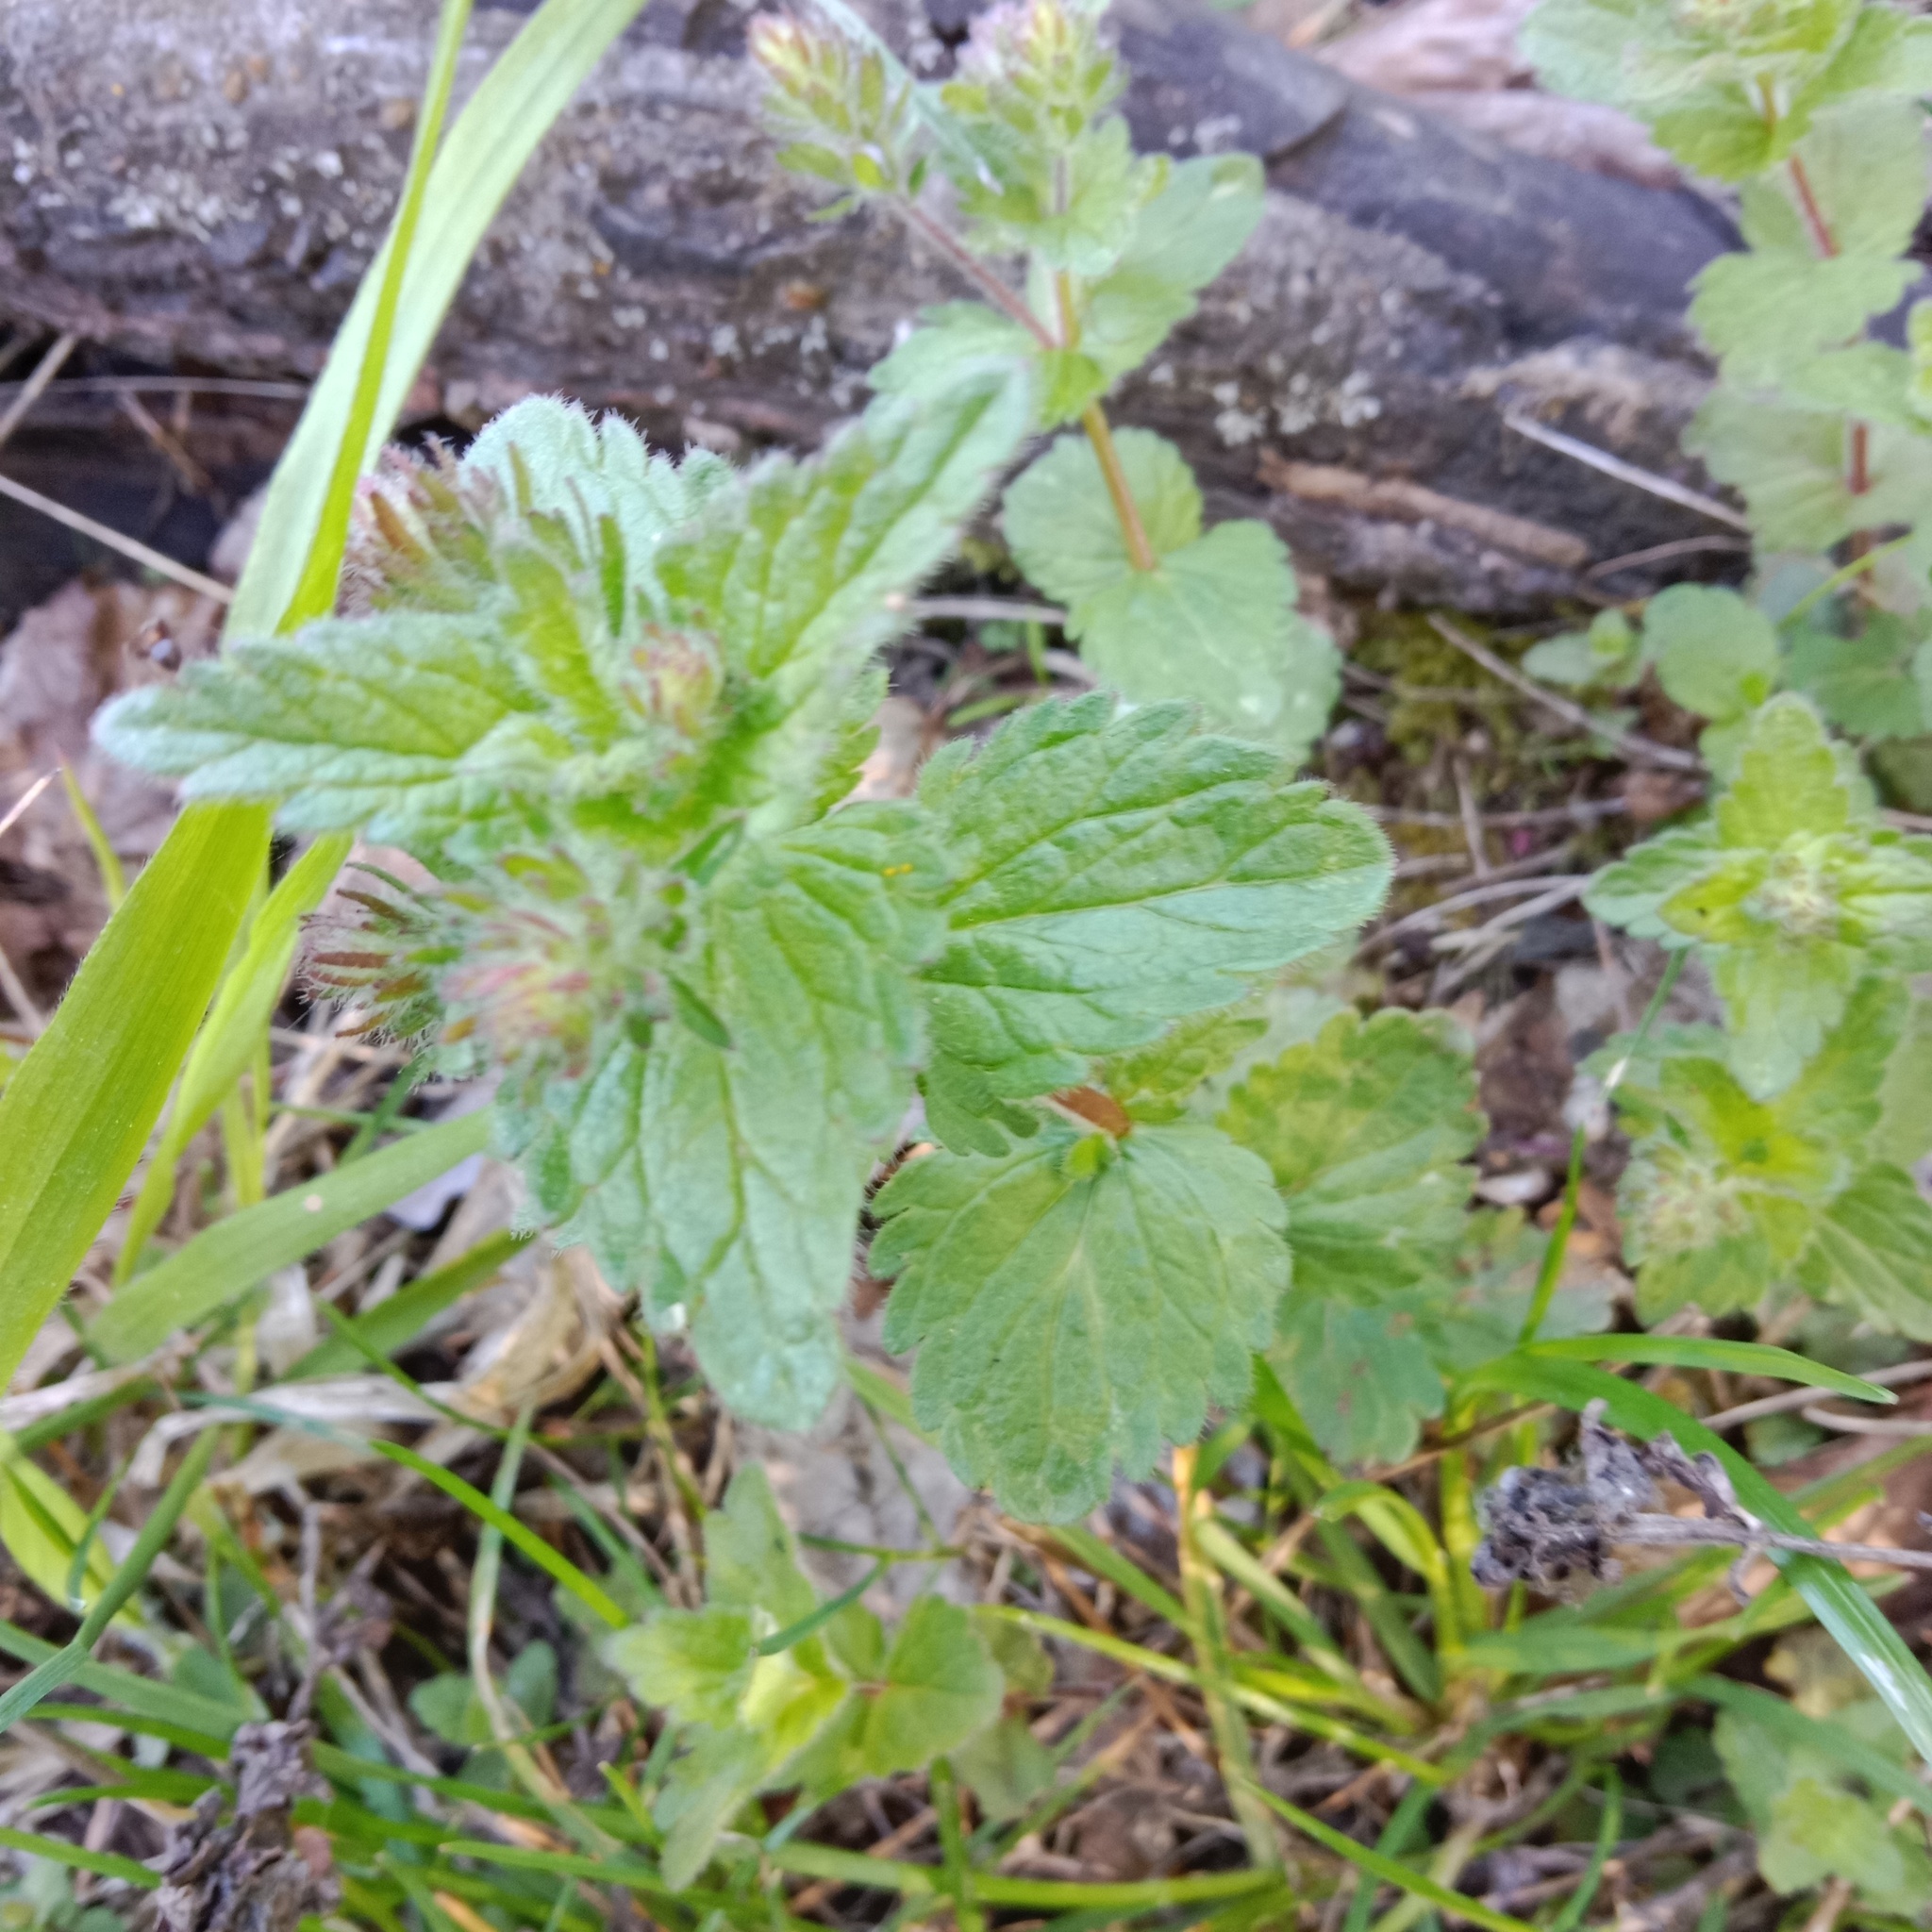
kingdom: Plantae
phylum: Tracheophyta
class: Magnoliopsida
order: Lamiales
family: Plantaginaceae
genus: Veronica
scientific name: Veronica chamaedrys
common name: Germander speedwell
